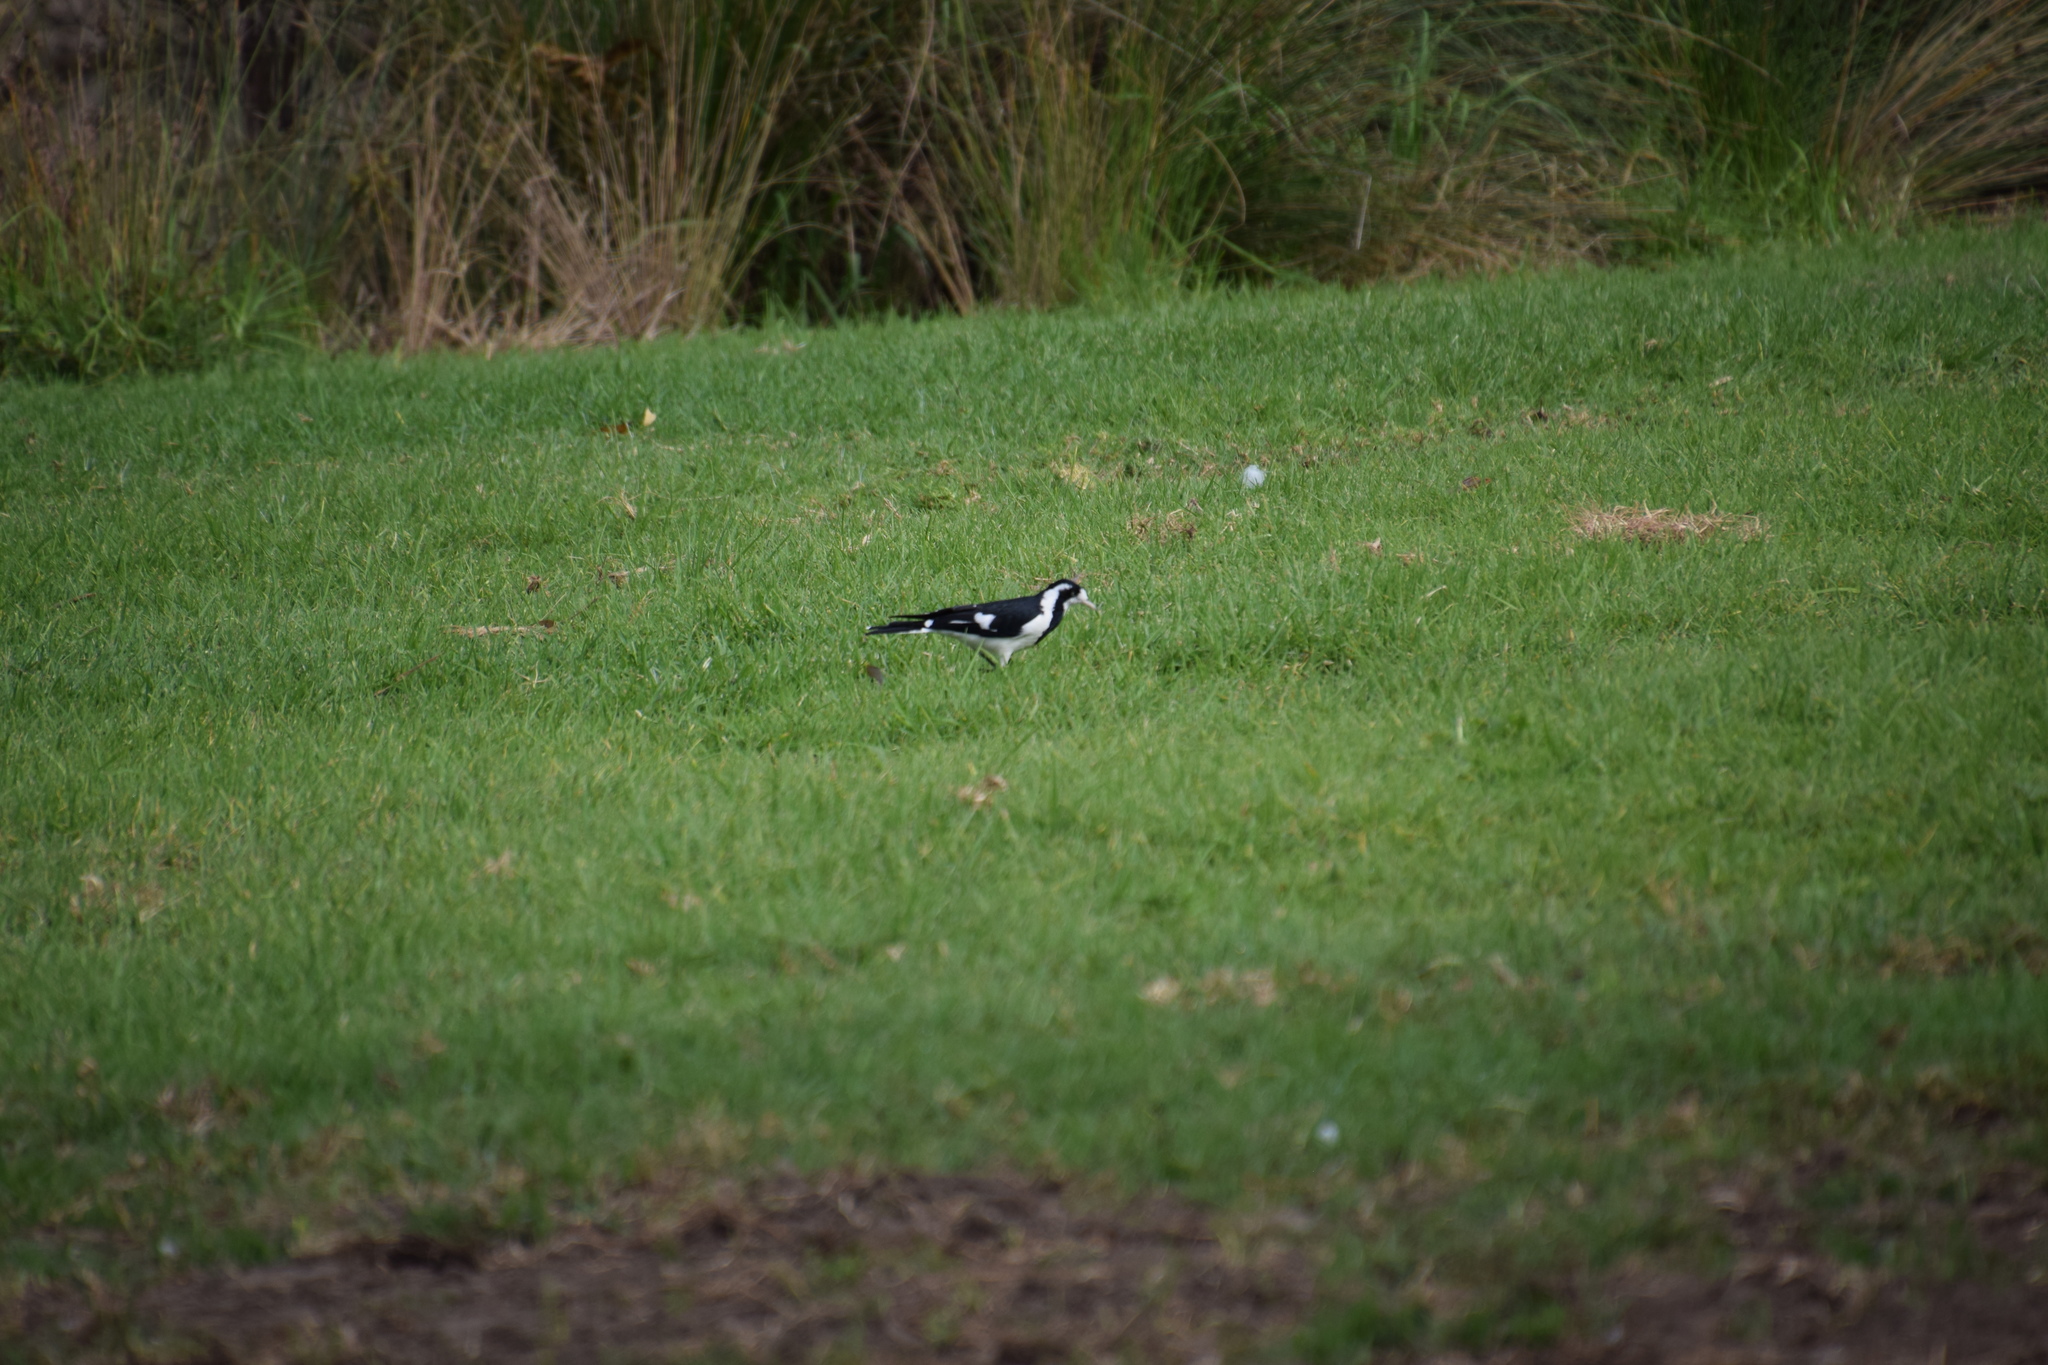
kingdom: Animalia
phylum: Chordata
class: Aves
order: Passeriformes
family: Monarchidae
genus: Grallina
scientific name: Grallina cyanoleuca
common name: Magpie-lark
